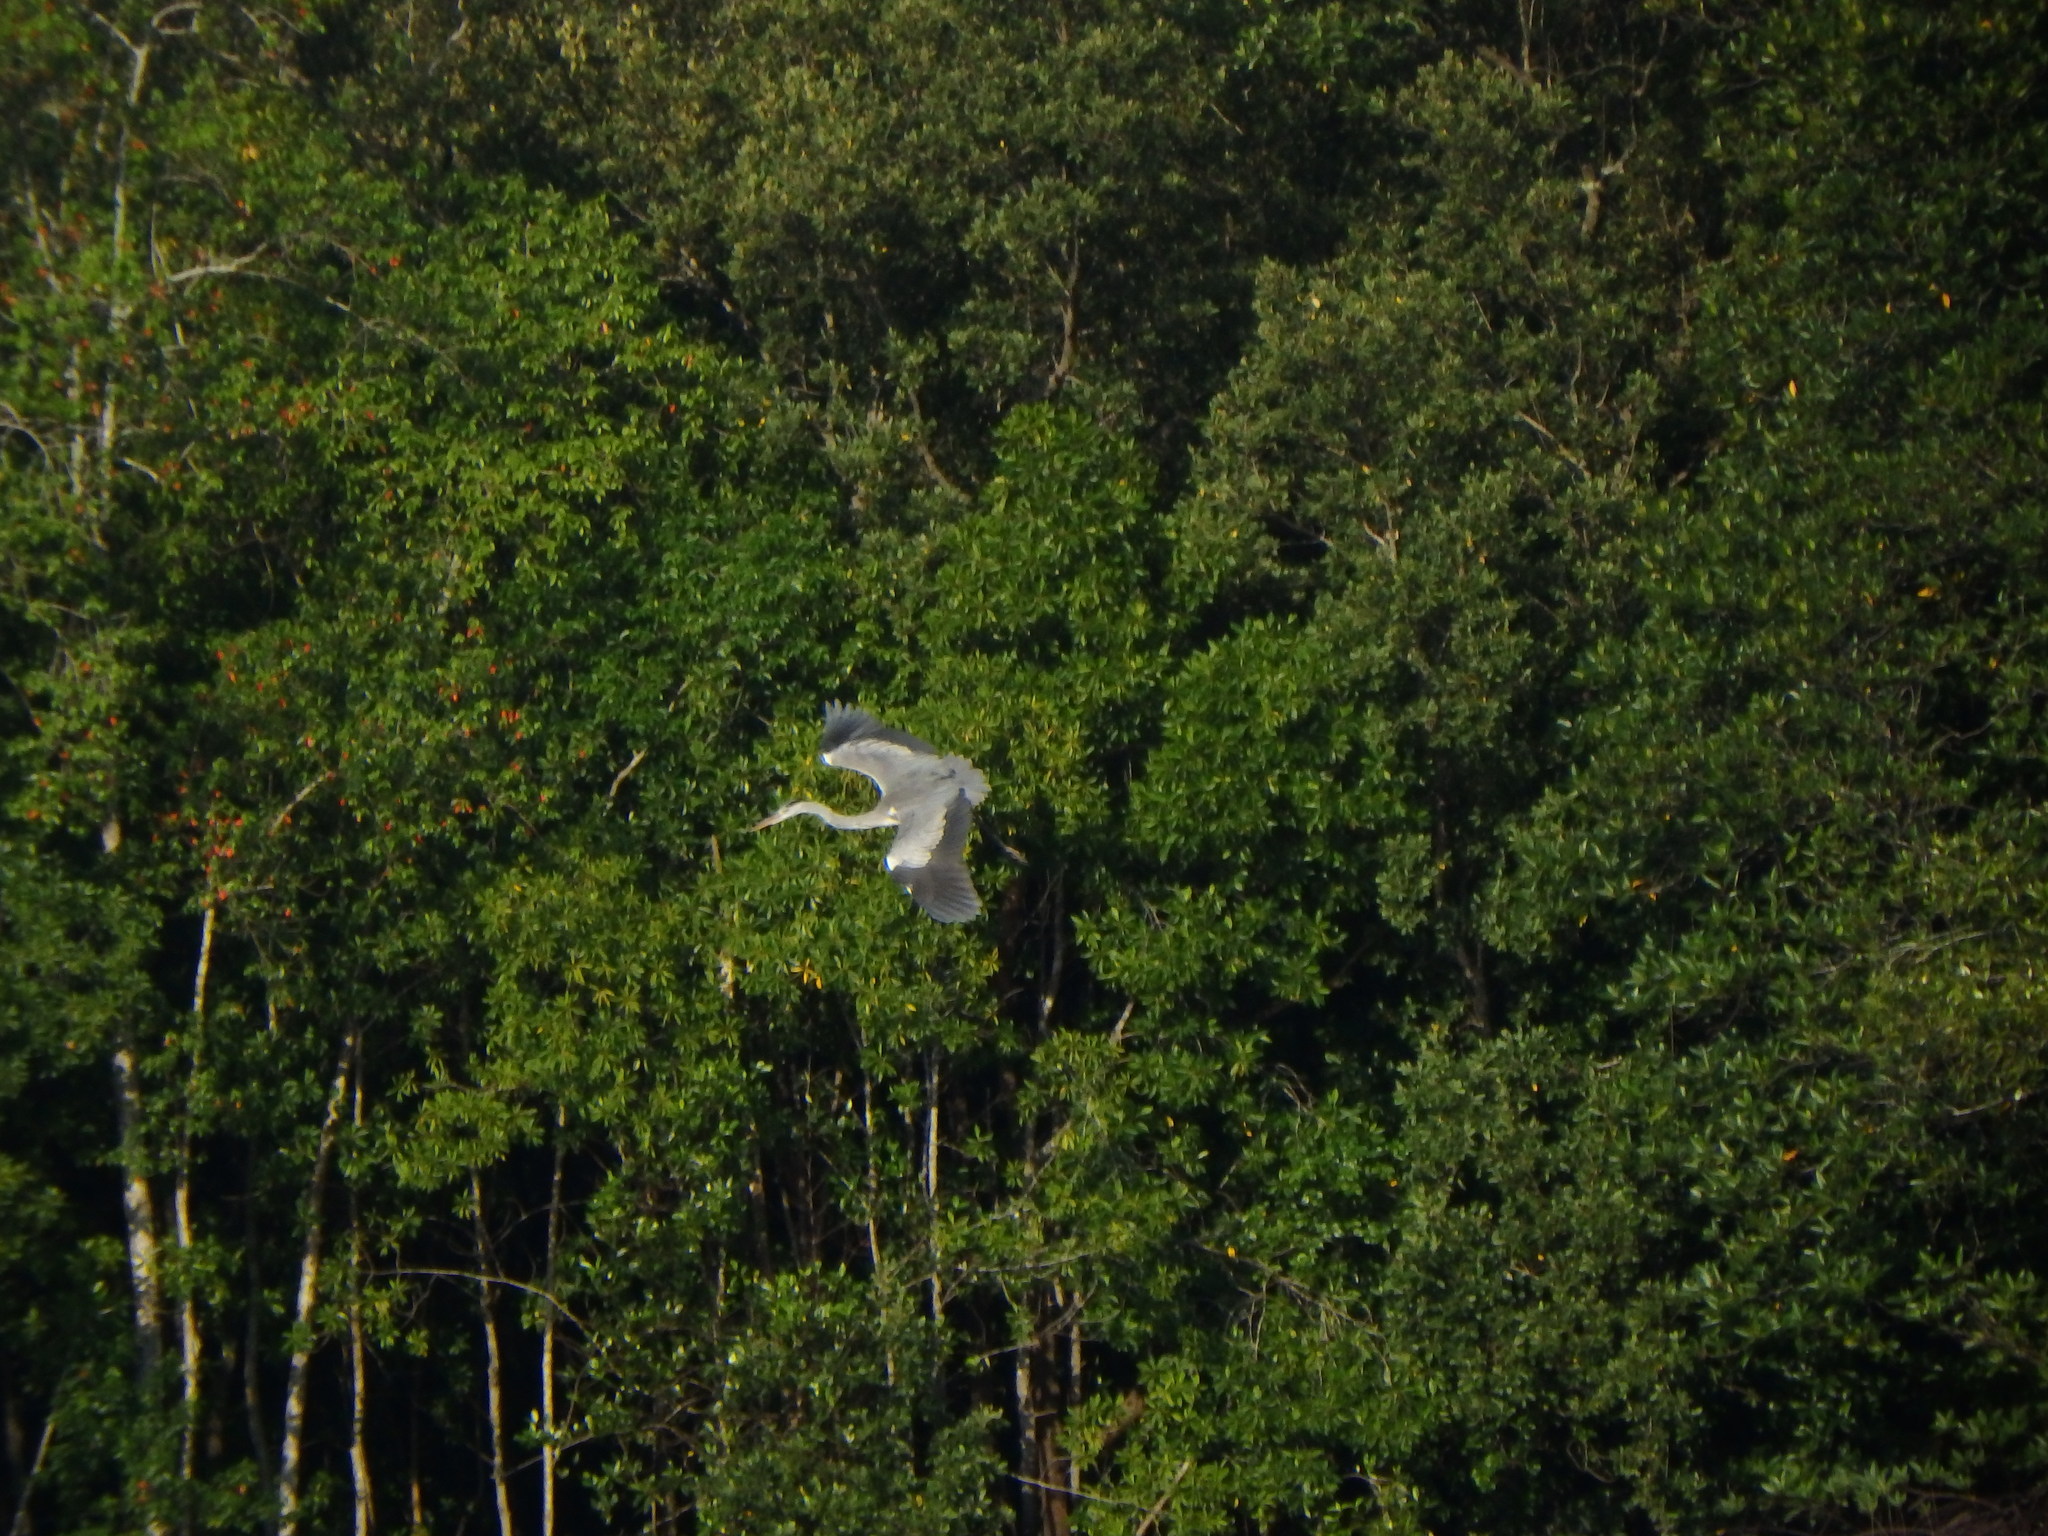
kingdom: Animalia
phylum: Chordata
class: Aves
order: Pelecaniformes
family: Ardeidae
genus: Ardea
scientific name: Ardea cinerea
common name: Grey heron
